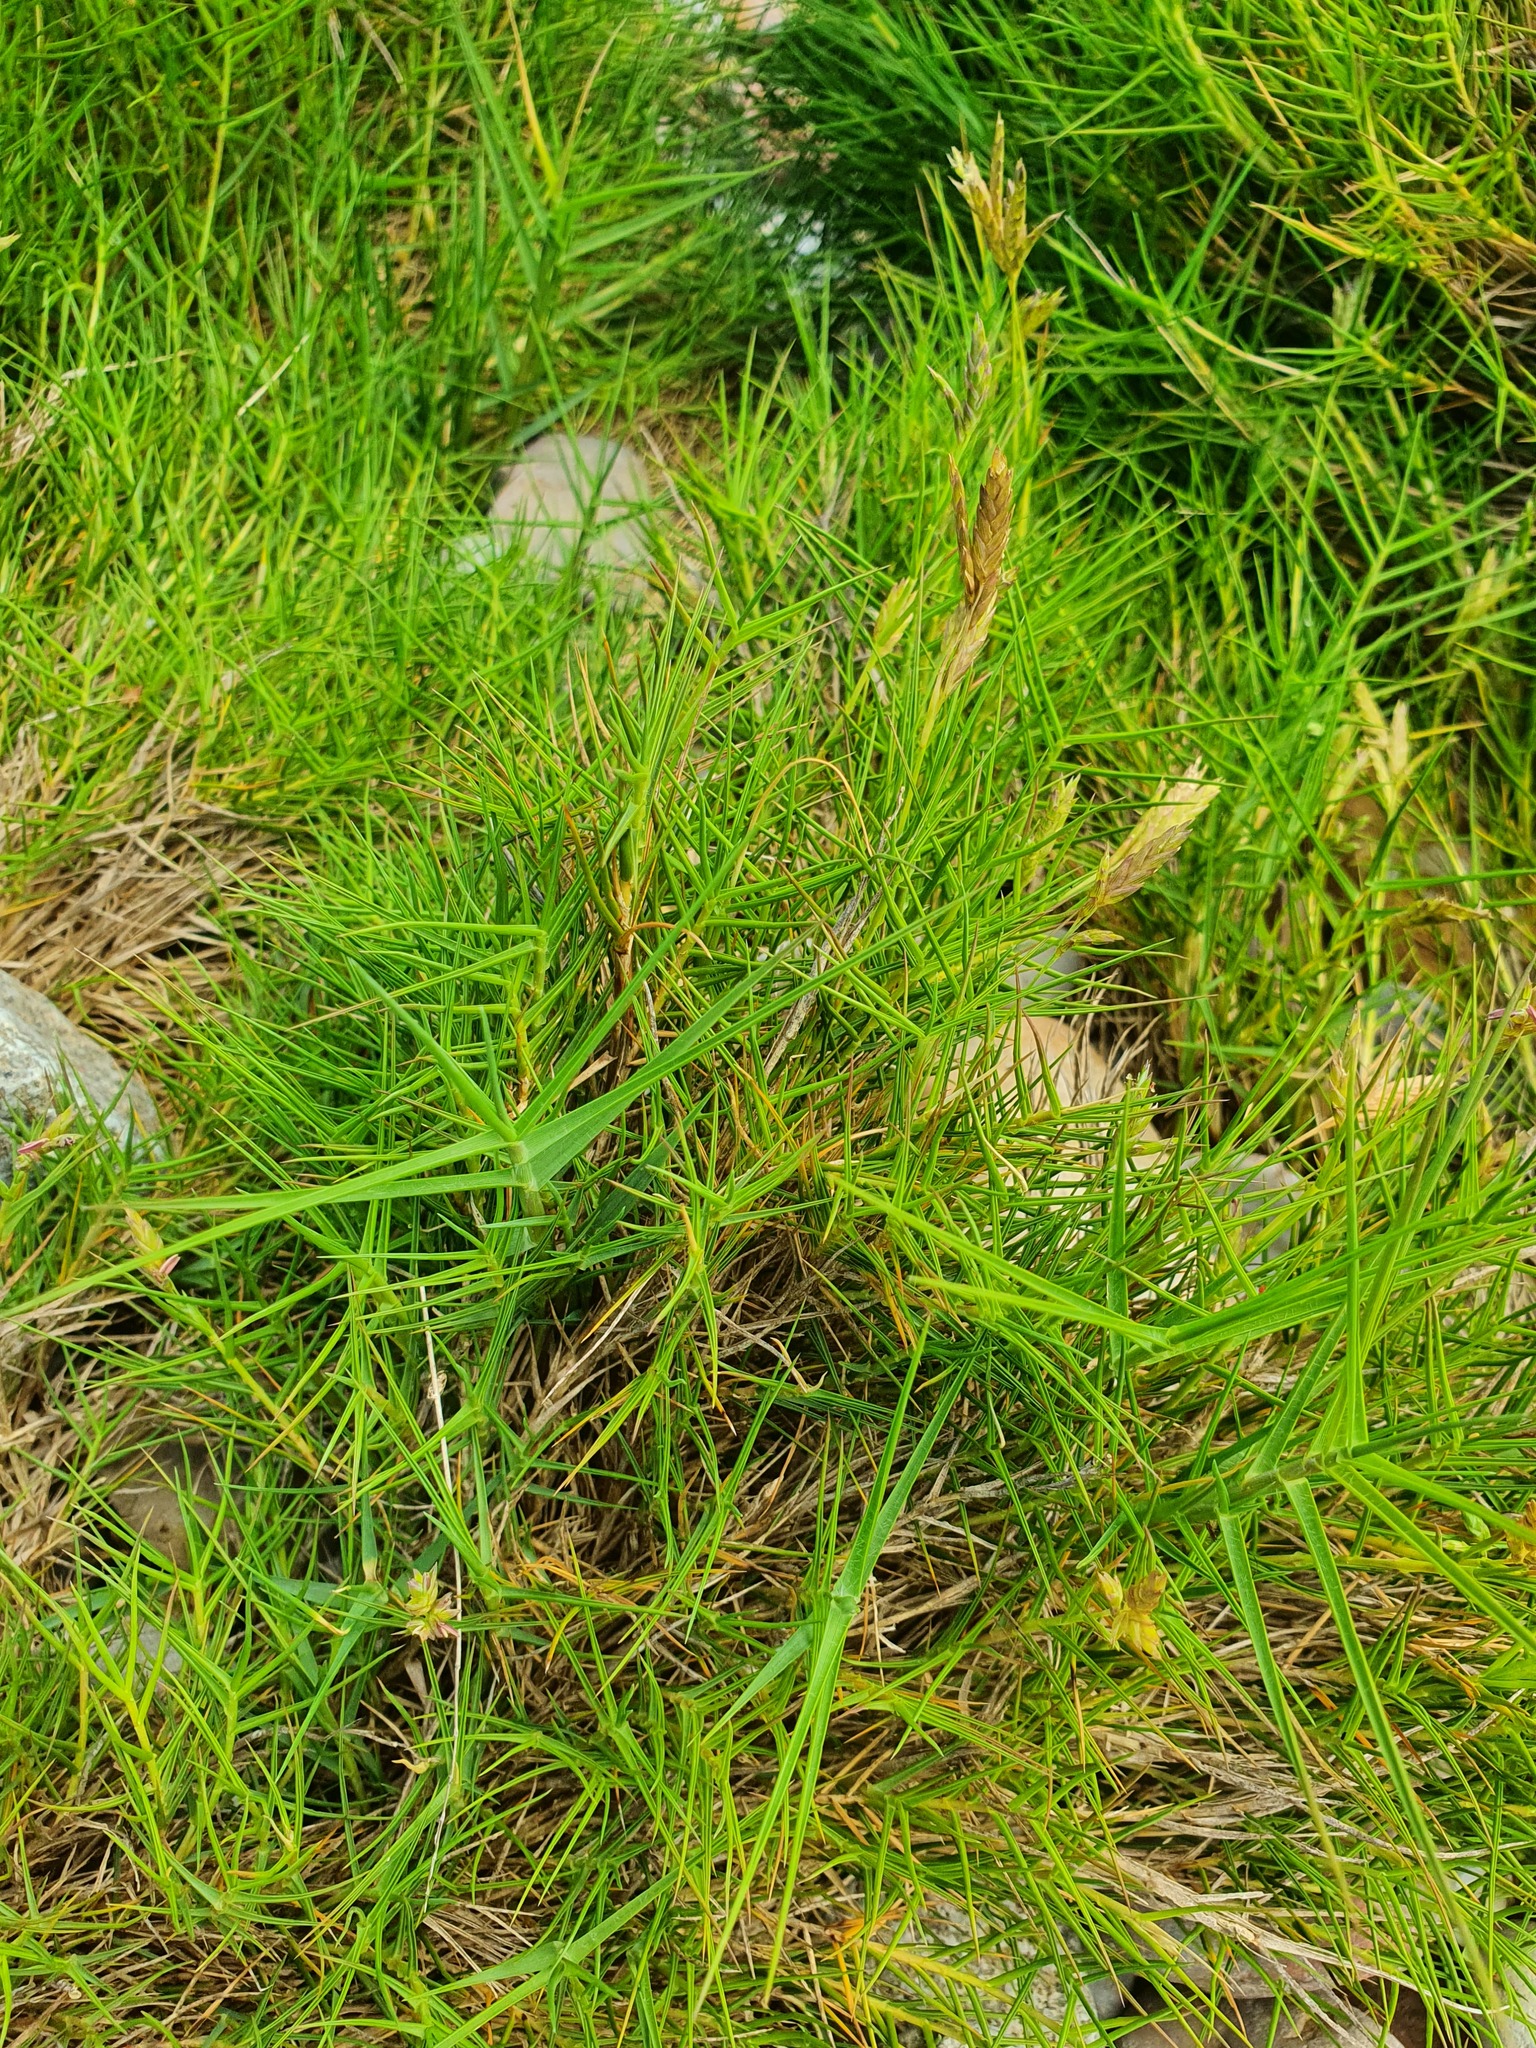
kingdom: Plantae
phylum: Tracheophyta
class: Liliopsida
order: Poales
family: Poaceae
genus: Distichlis
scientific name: Distichlis distichophylla
